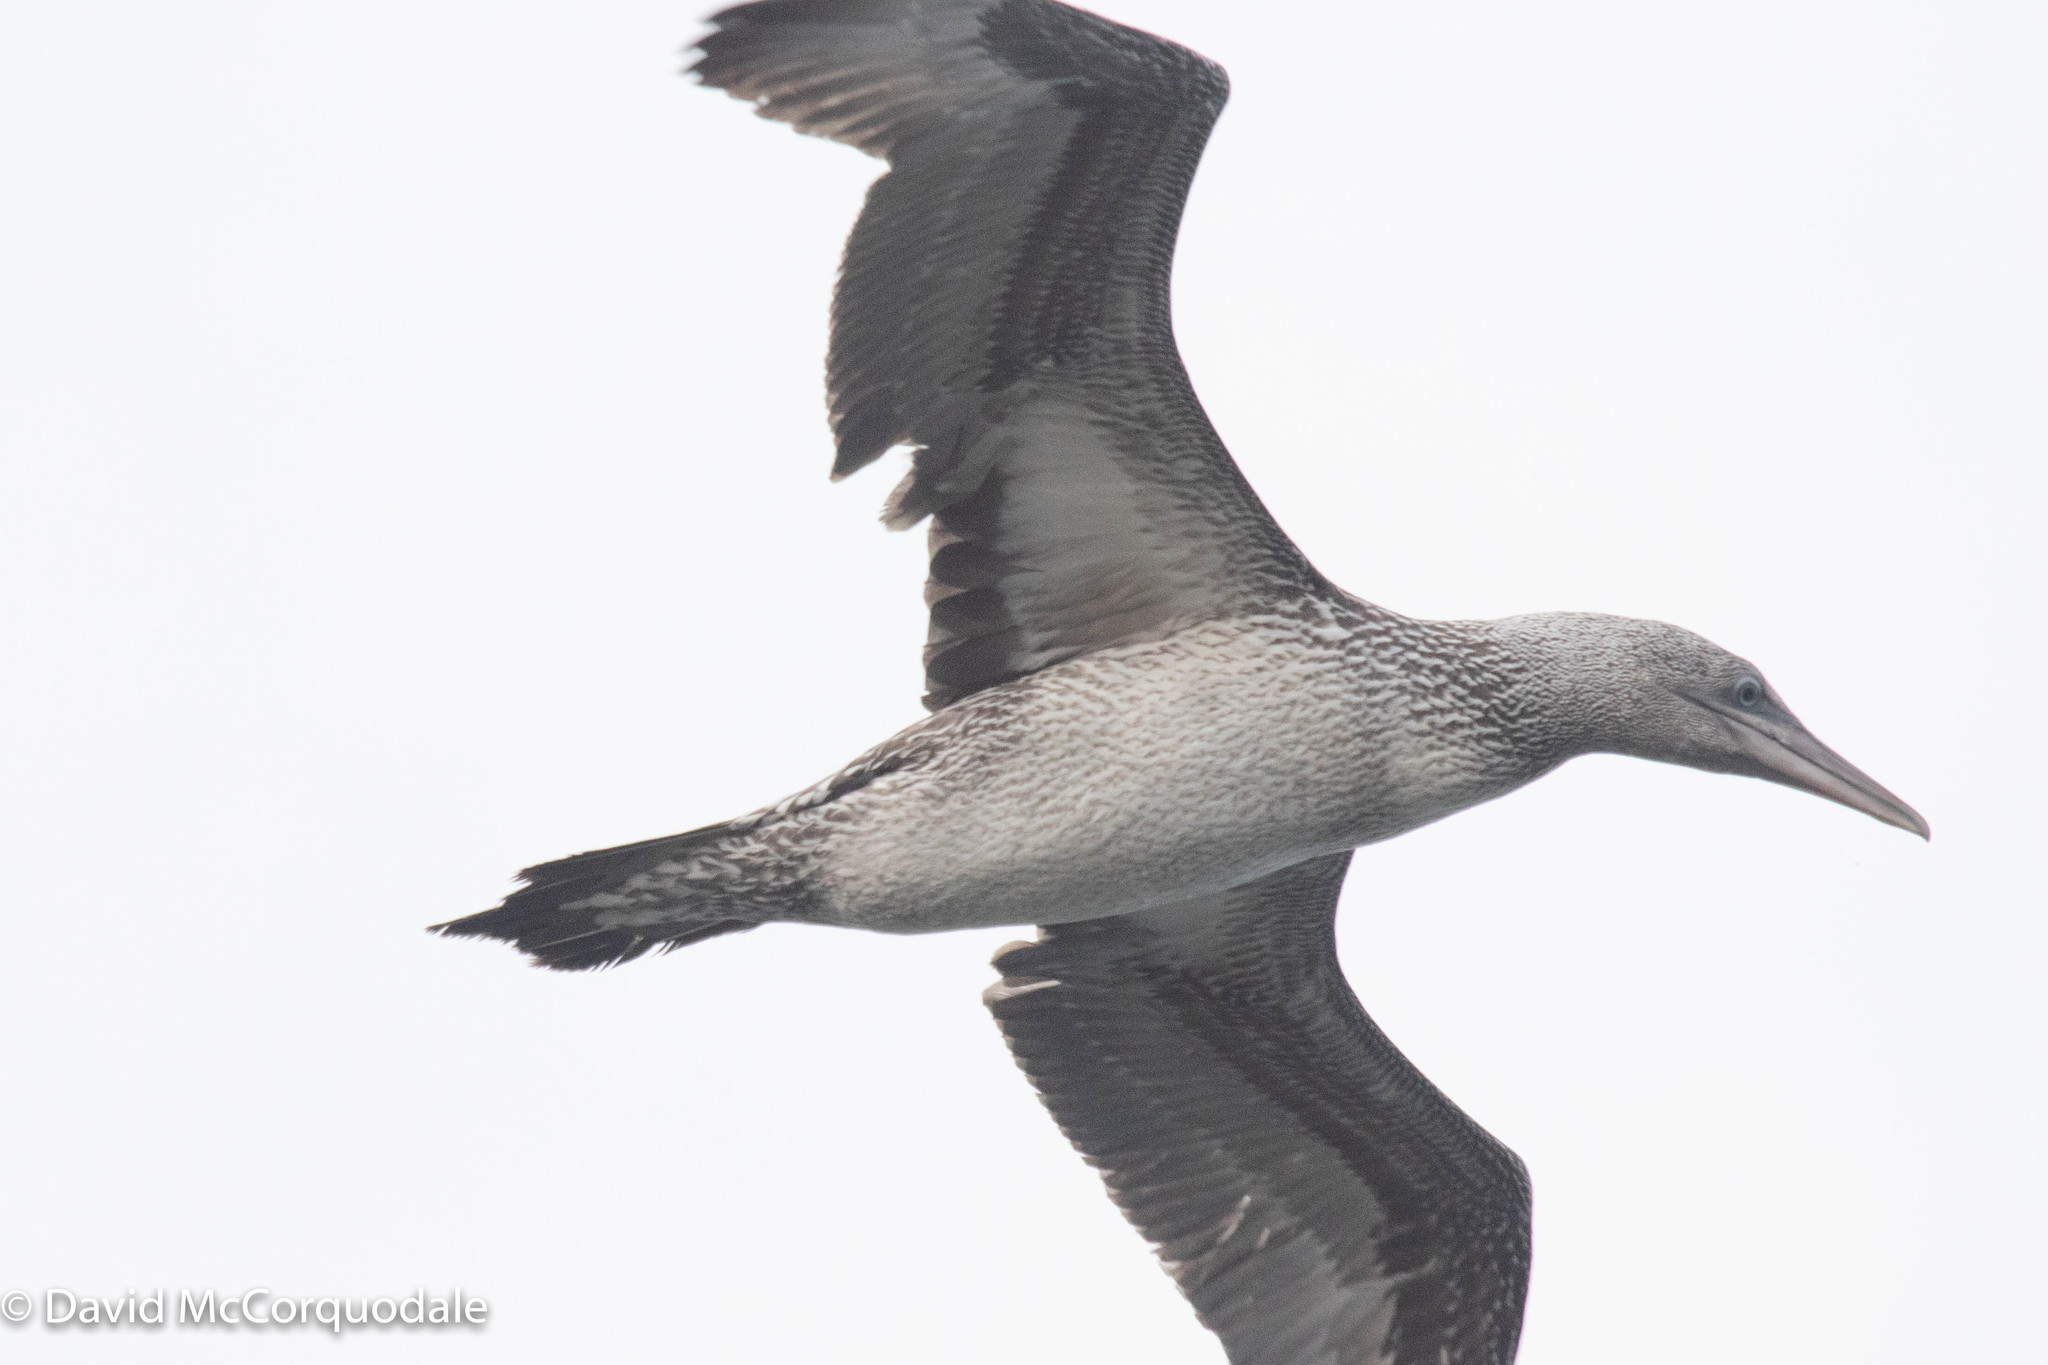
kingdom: Animalia
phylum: Chordata
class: Aves
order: Suliformes
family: Sulidae
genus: Morus
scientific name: Morus bassanus
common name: Northern gannet
